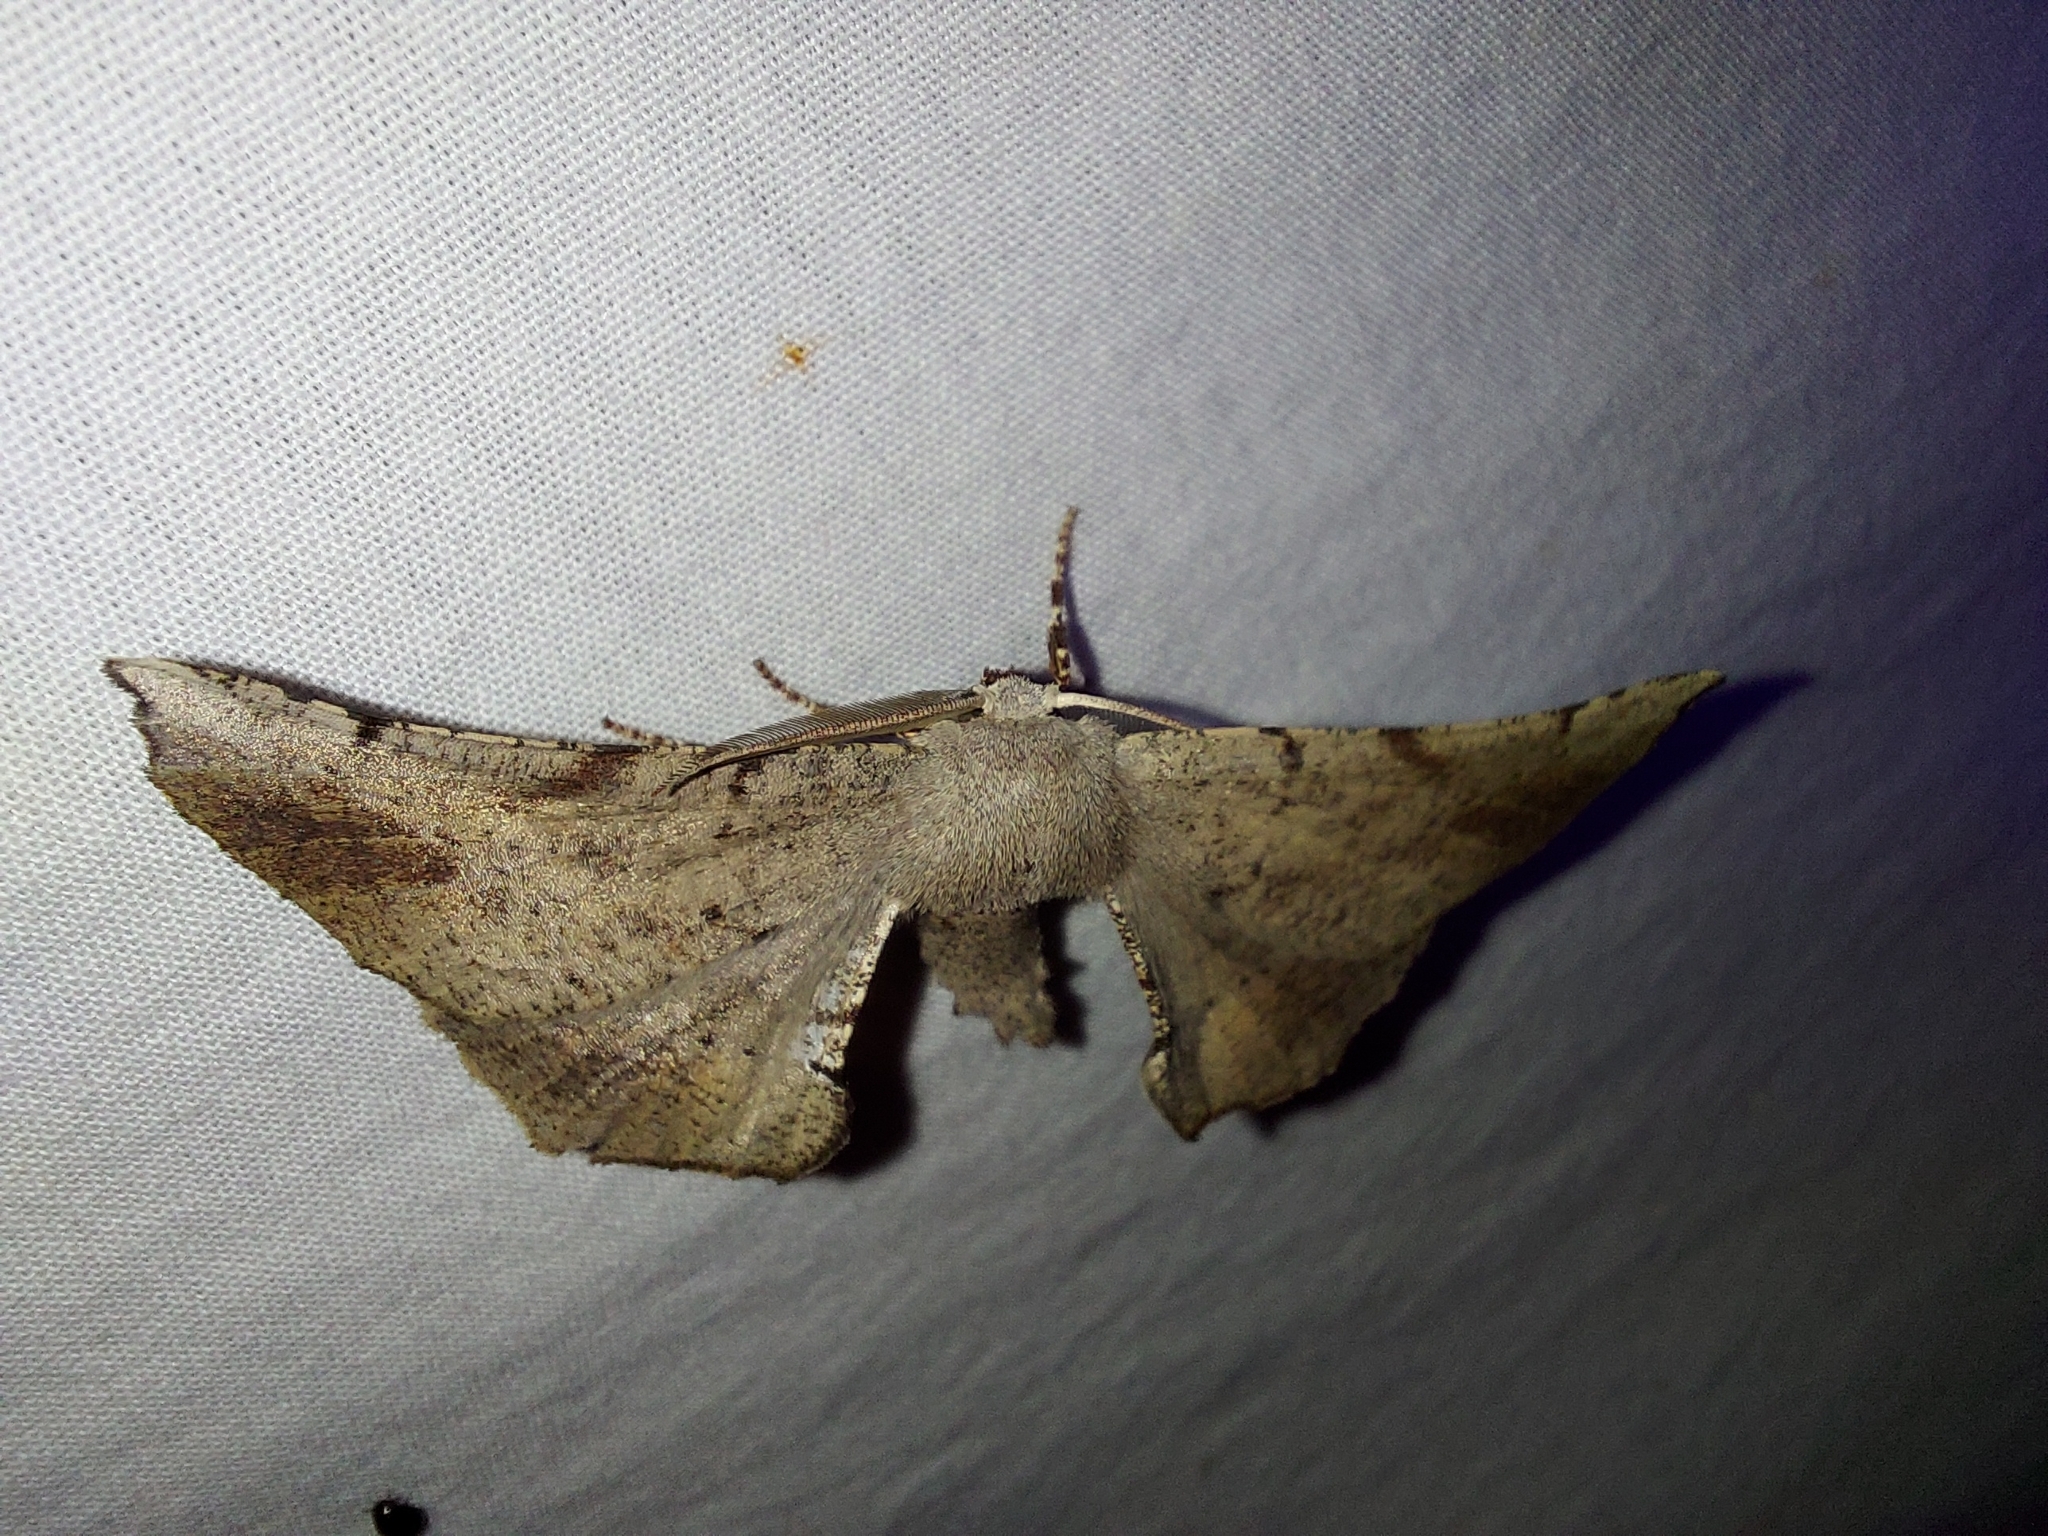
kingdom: Animalia
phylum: Arthropoda
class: Insecta
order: Lepidoptera
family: Geometridae
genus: Circopetes
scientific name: Circopetes obtusata
